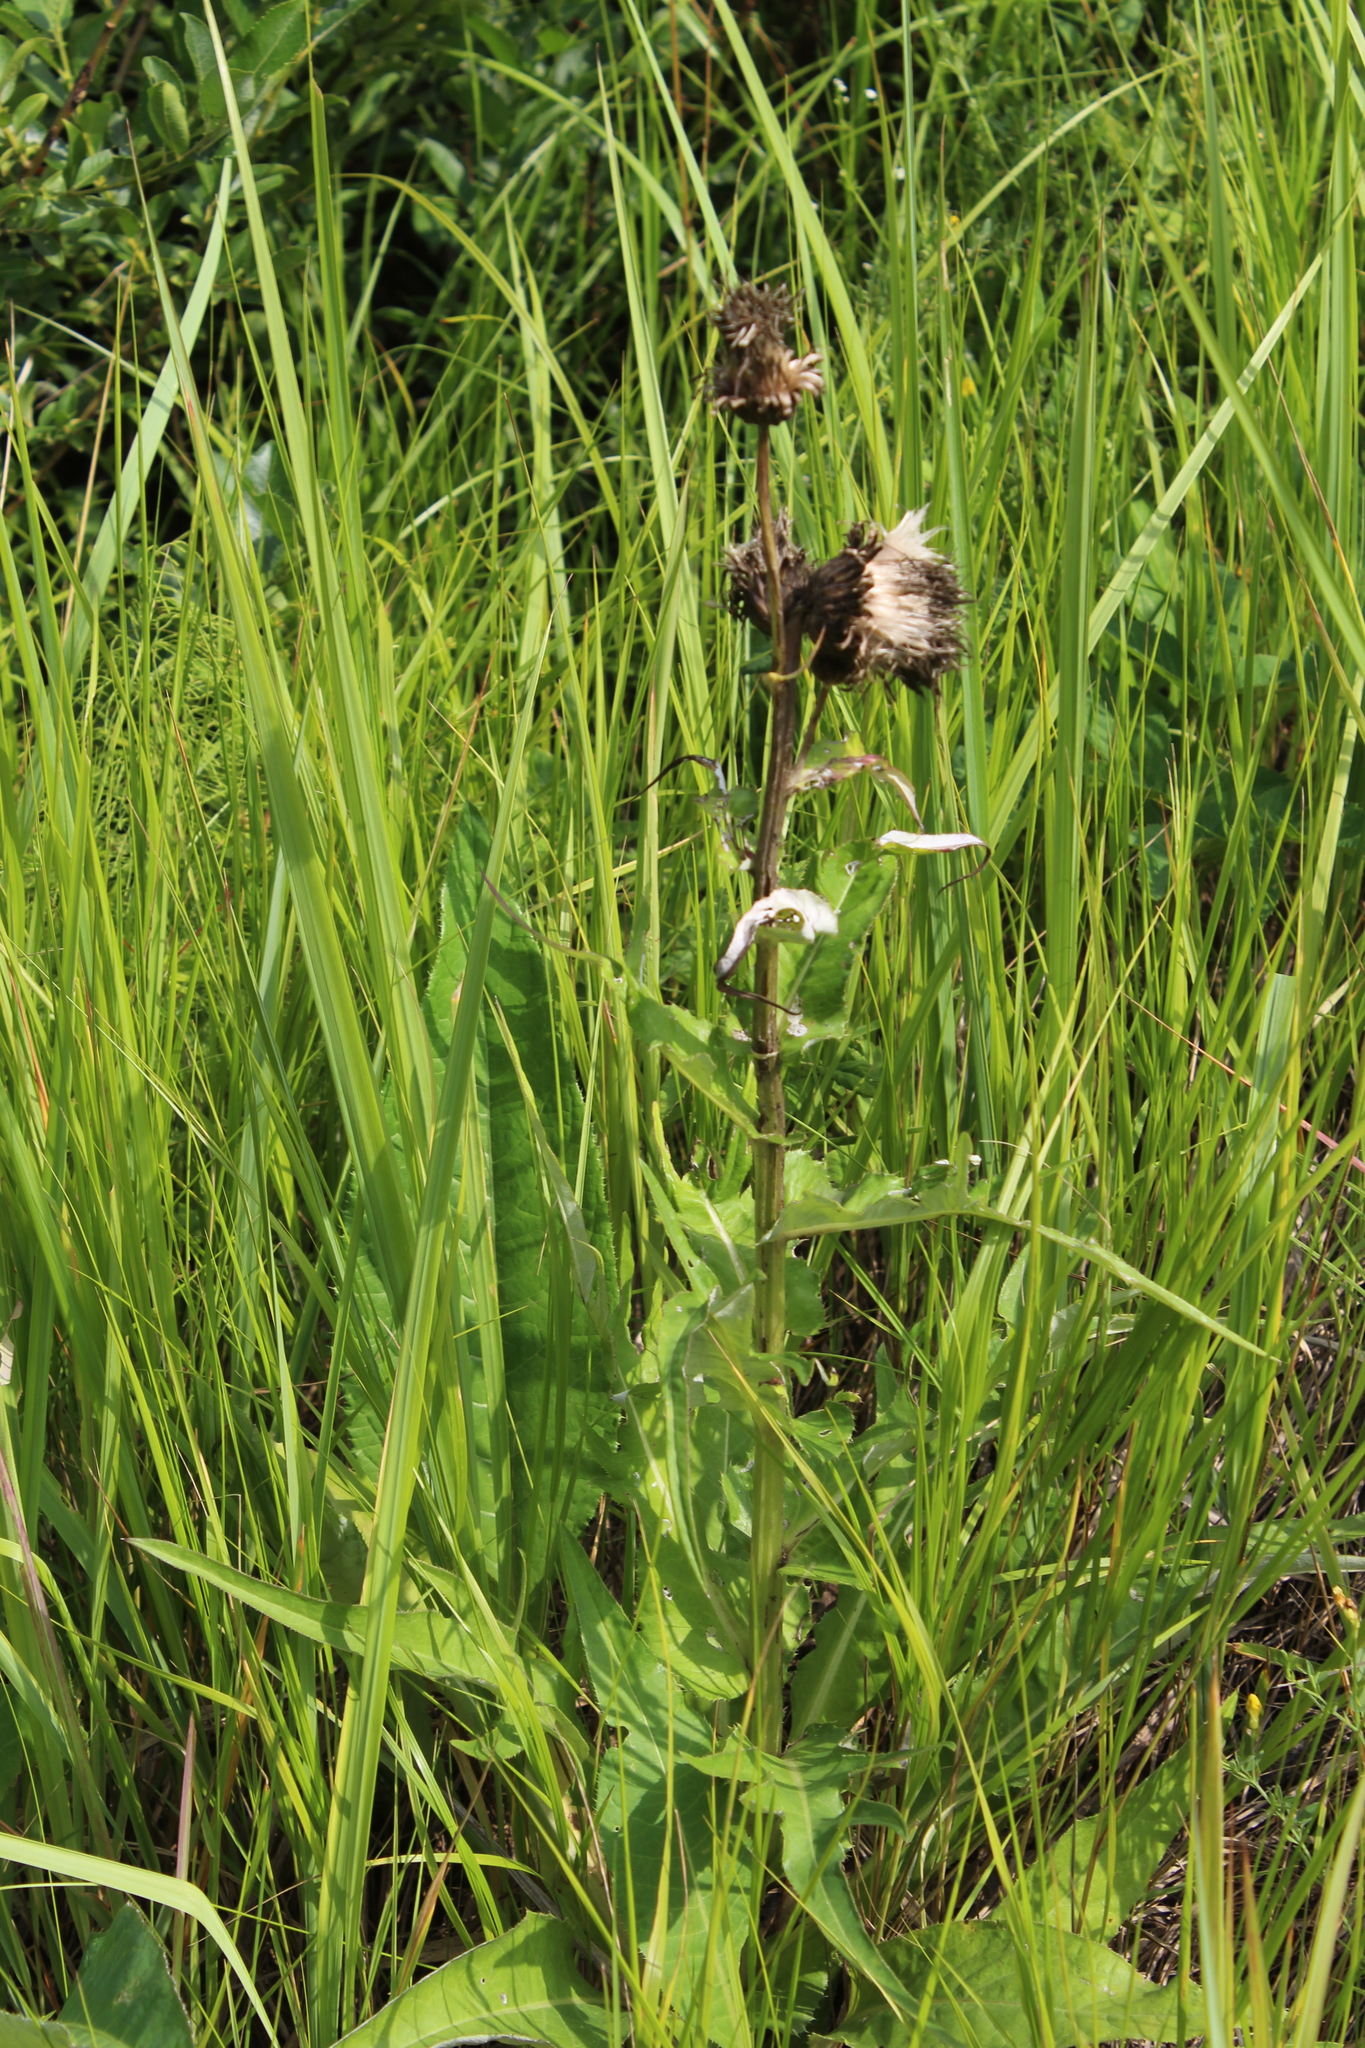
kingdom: Plantae
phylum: Tracheophyta
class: Magnoliopsida
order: Asterales
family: Asteraceae
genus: Cirsium
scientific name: Cirsium heterophyllum
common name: Melancholy thistle
